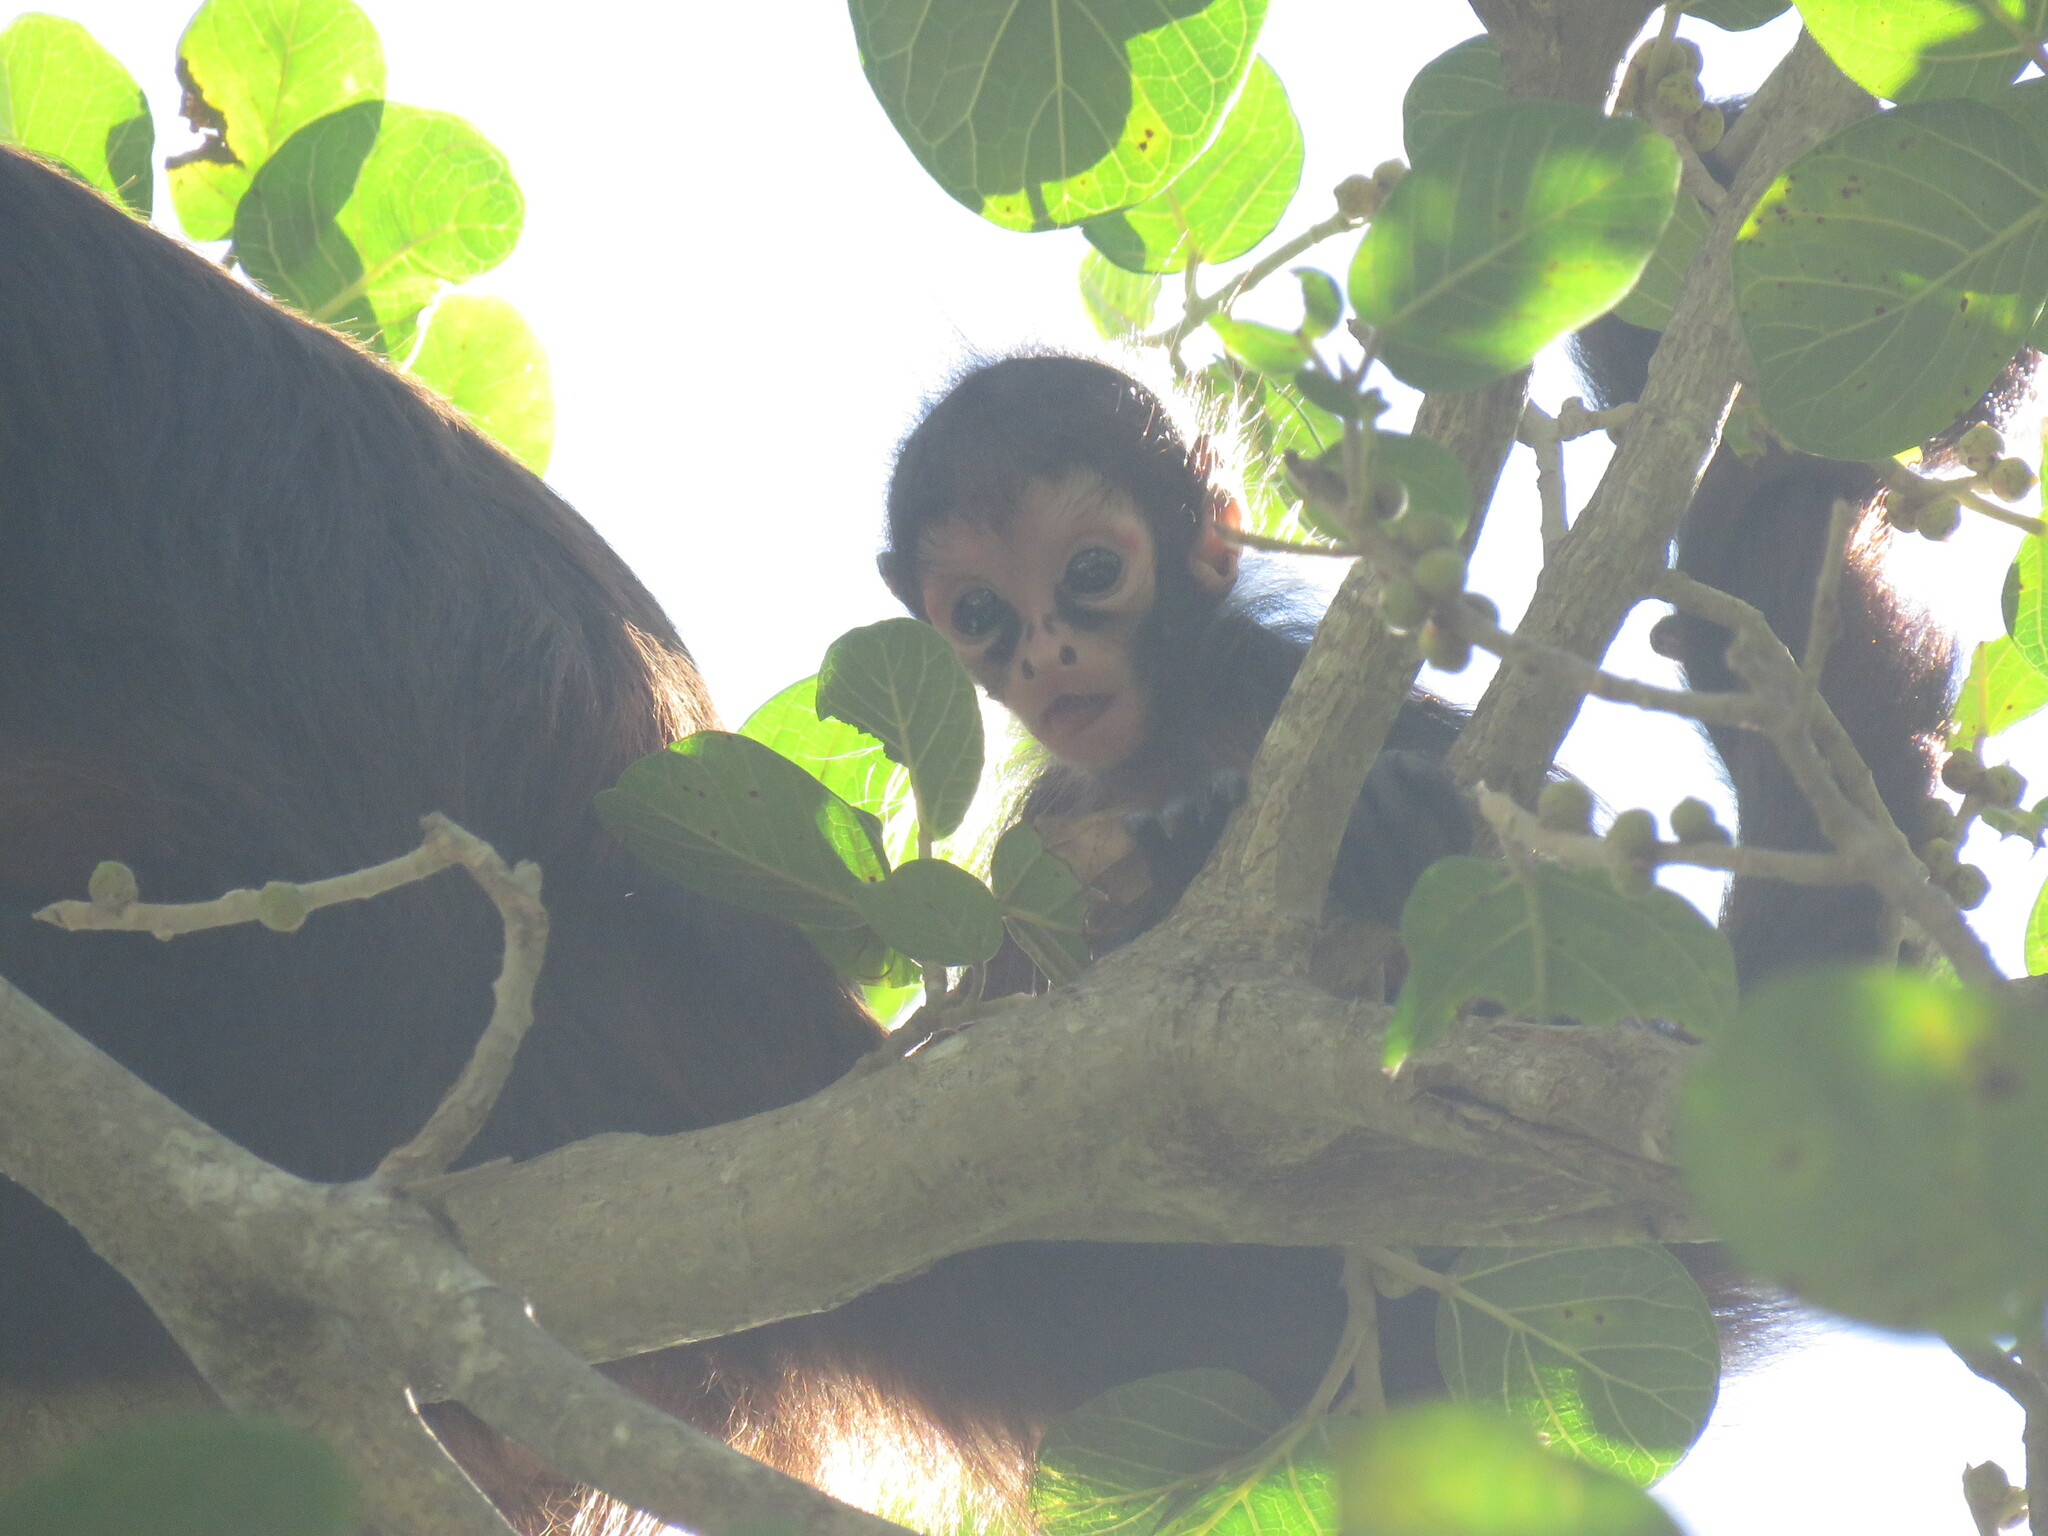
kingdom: Animalia
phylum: Chordata
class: Mammalia
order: Primates
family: Atelidae
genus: Ateles
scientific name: Ateles geoffroyi
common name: Black-handed spider monkey
